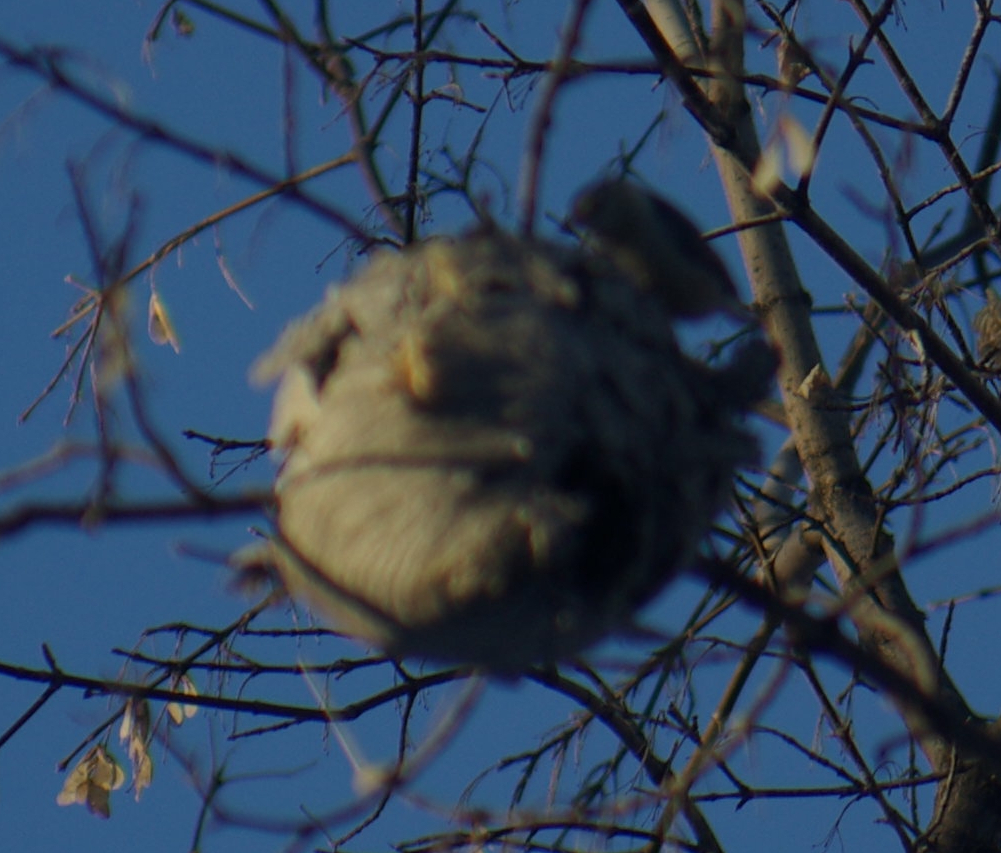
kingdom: Animalia
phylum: Chordata
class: Aves
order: Passeriformes
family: Sittidae
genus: Sitta
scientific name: Sitta carolinensis
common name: White-breasted nuthatch
